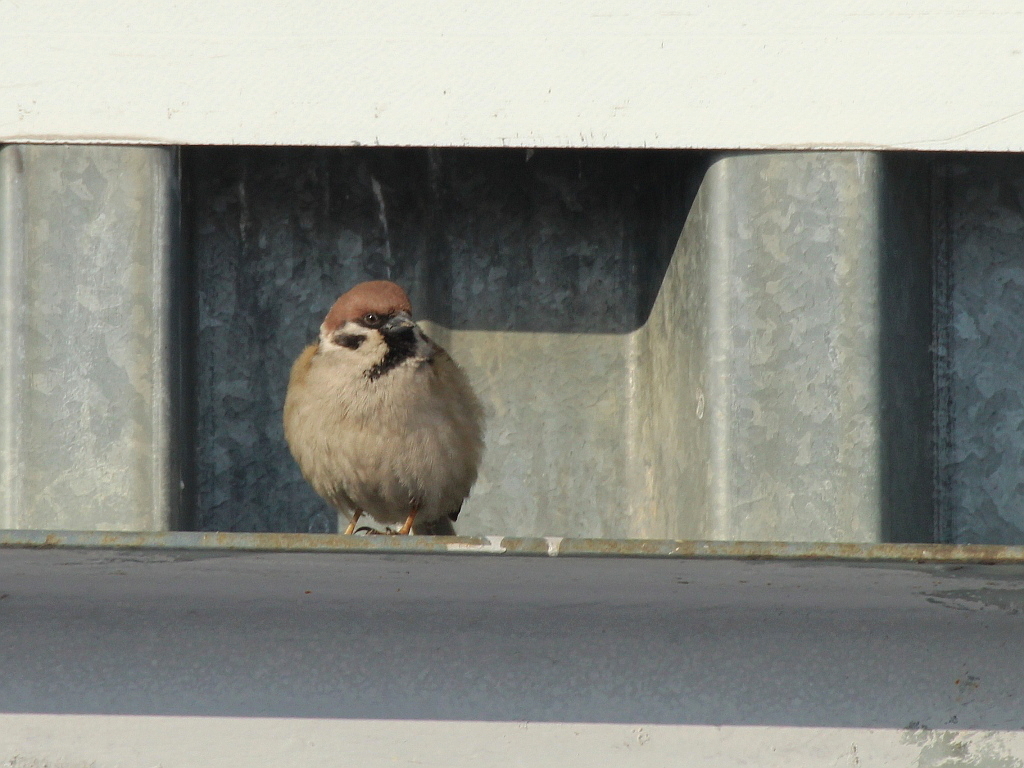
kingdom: Animalia
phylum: Chordata
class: Aves
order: Passeriformes
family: Passeridae
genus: Passer
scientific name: Passer montanus
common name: Eurasian tree sparrow
